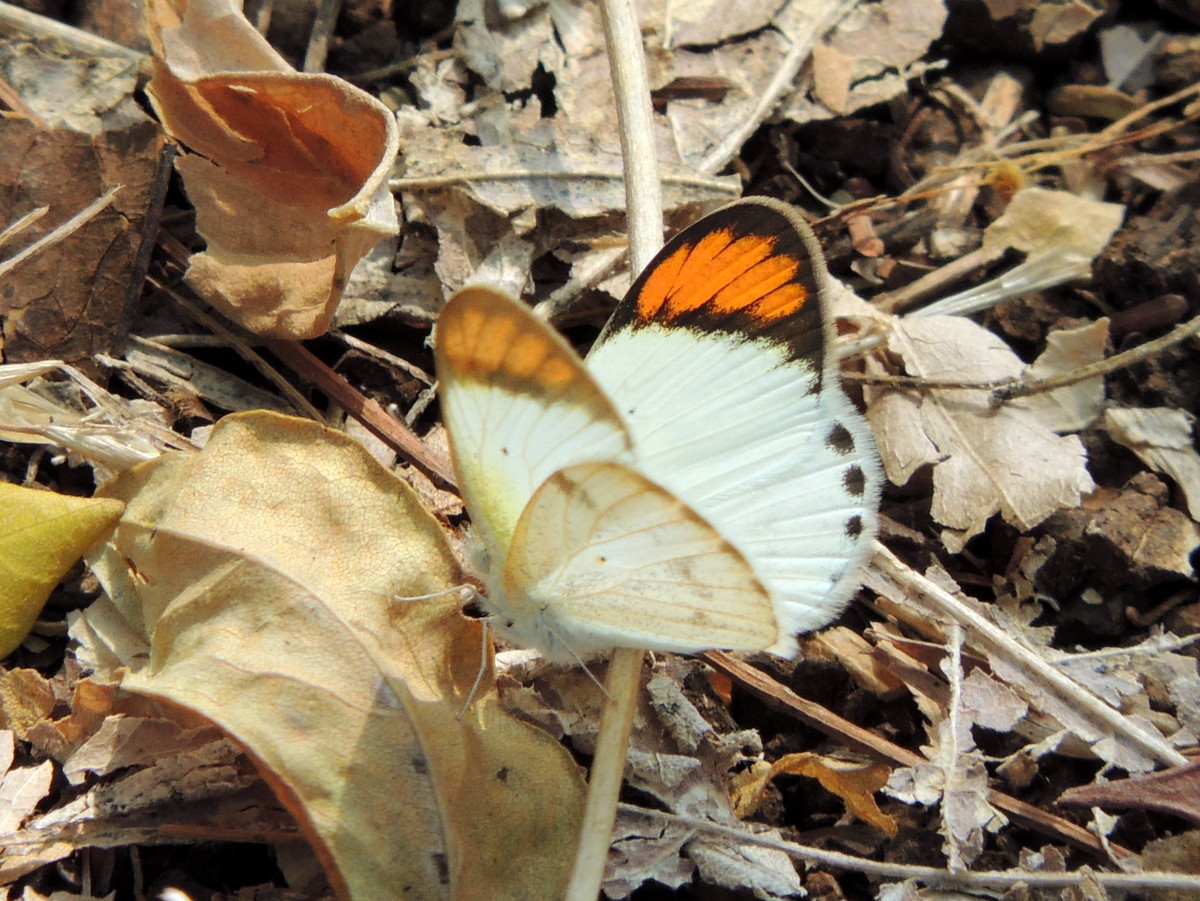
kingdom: Animalia
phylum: Arthropoda
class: Insecta
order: Lepidoptera
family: Pieridae
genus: Colotis
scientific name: Colotis etrida
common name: Little orange tip
